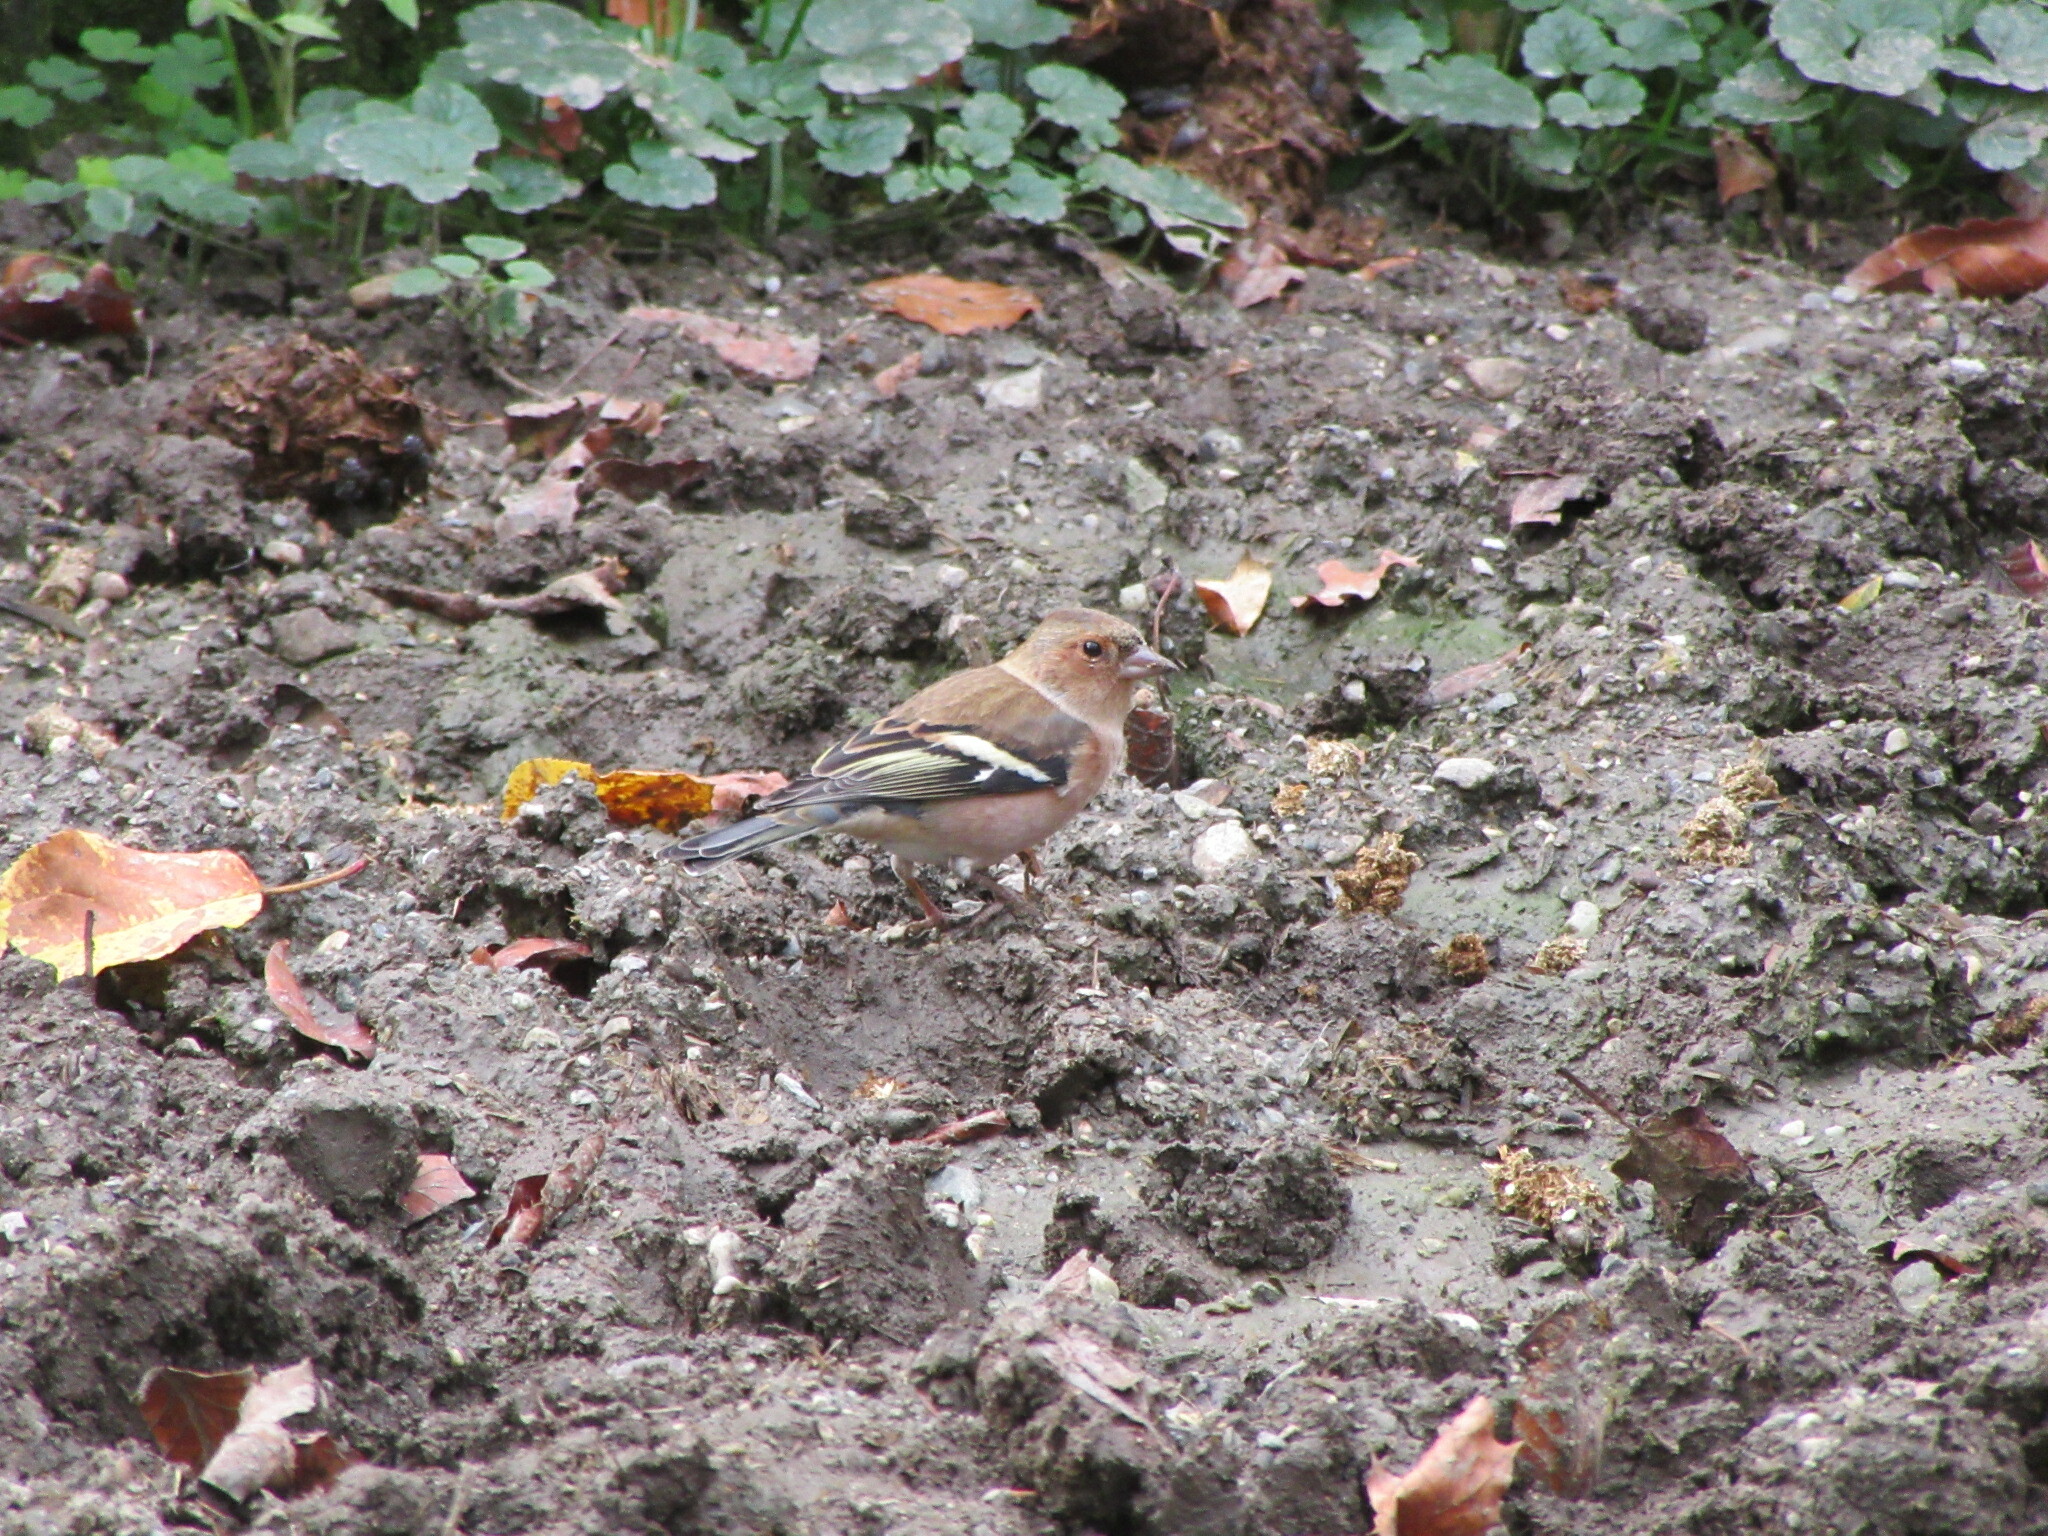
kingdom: Animalia
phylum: Chordata
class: Aves
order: Passeriformes
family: Fringillidae
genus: Fringilla
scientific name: Fringilla coelebs
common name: Common chaffinch
